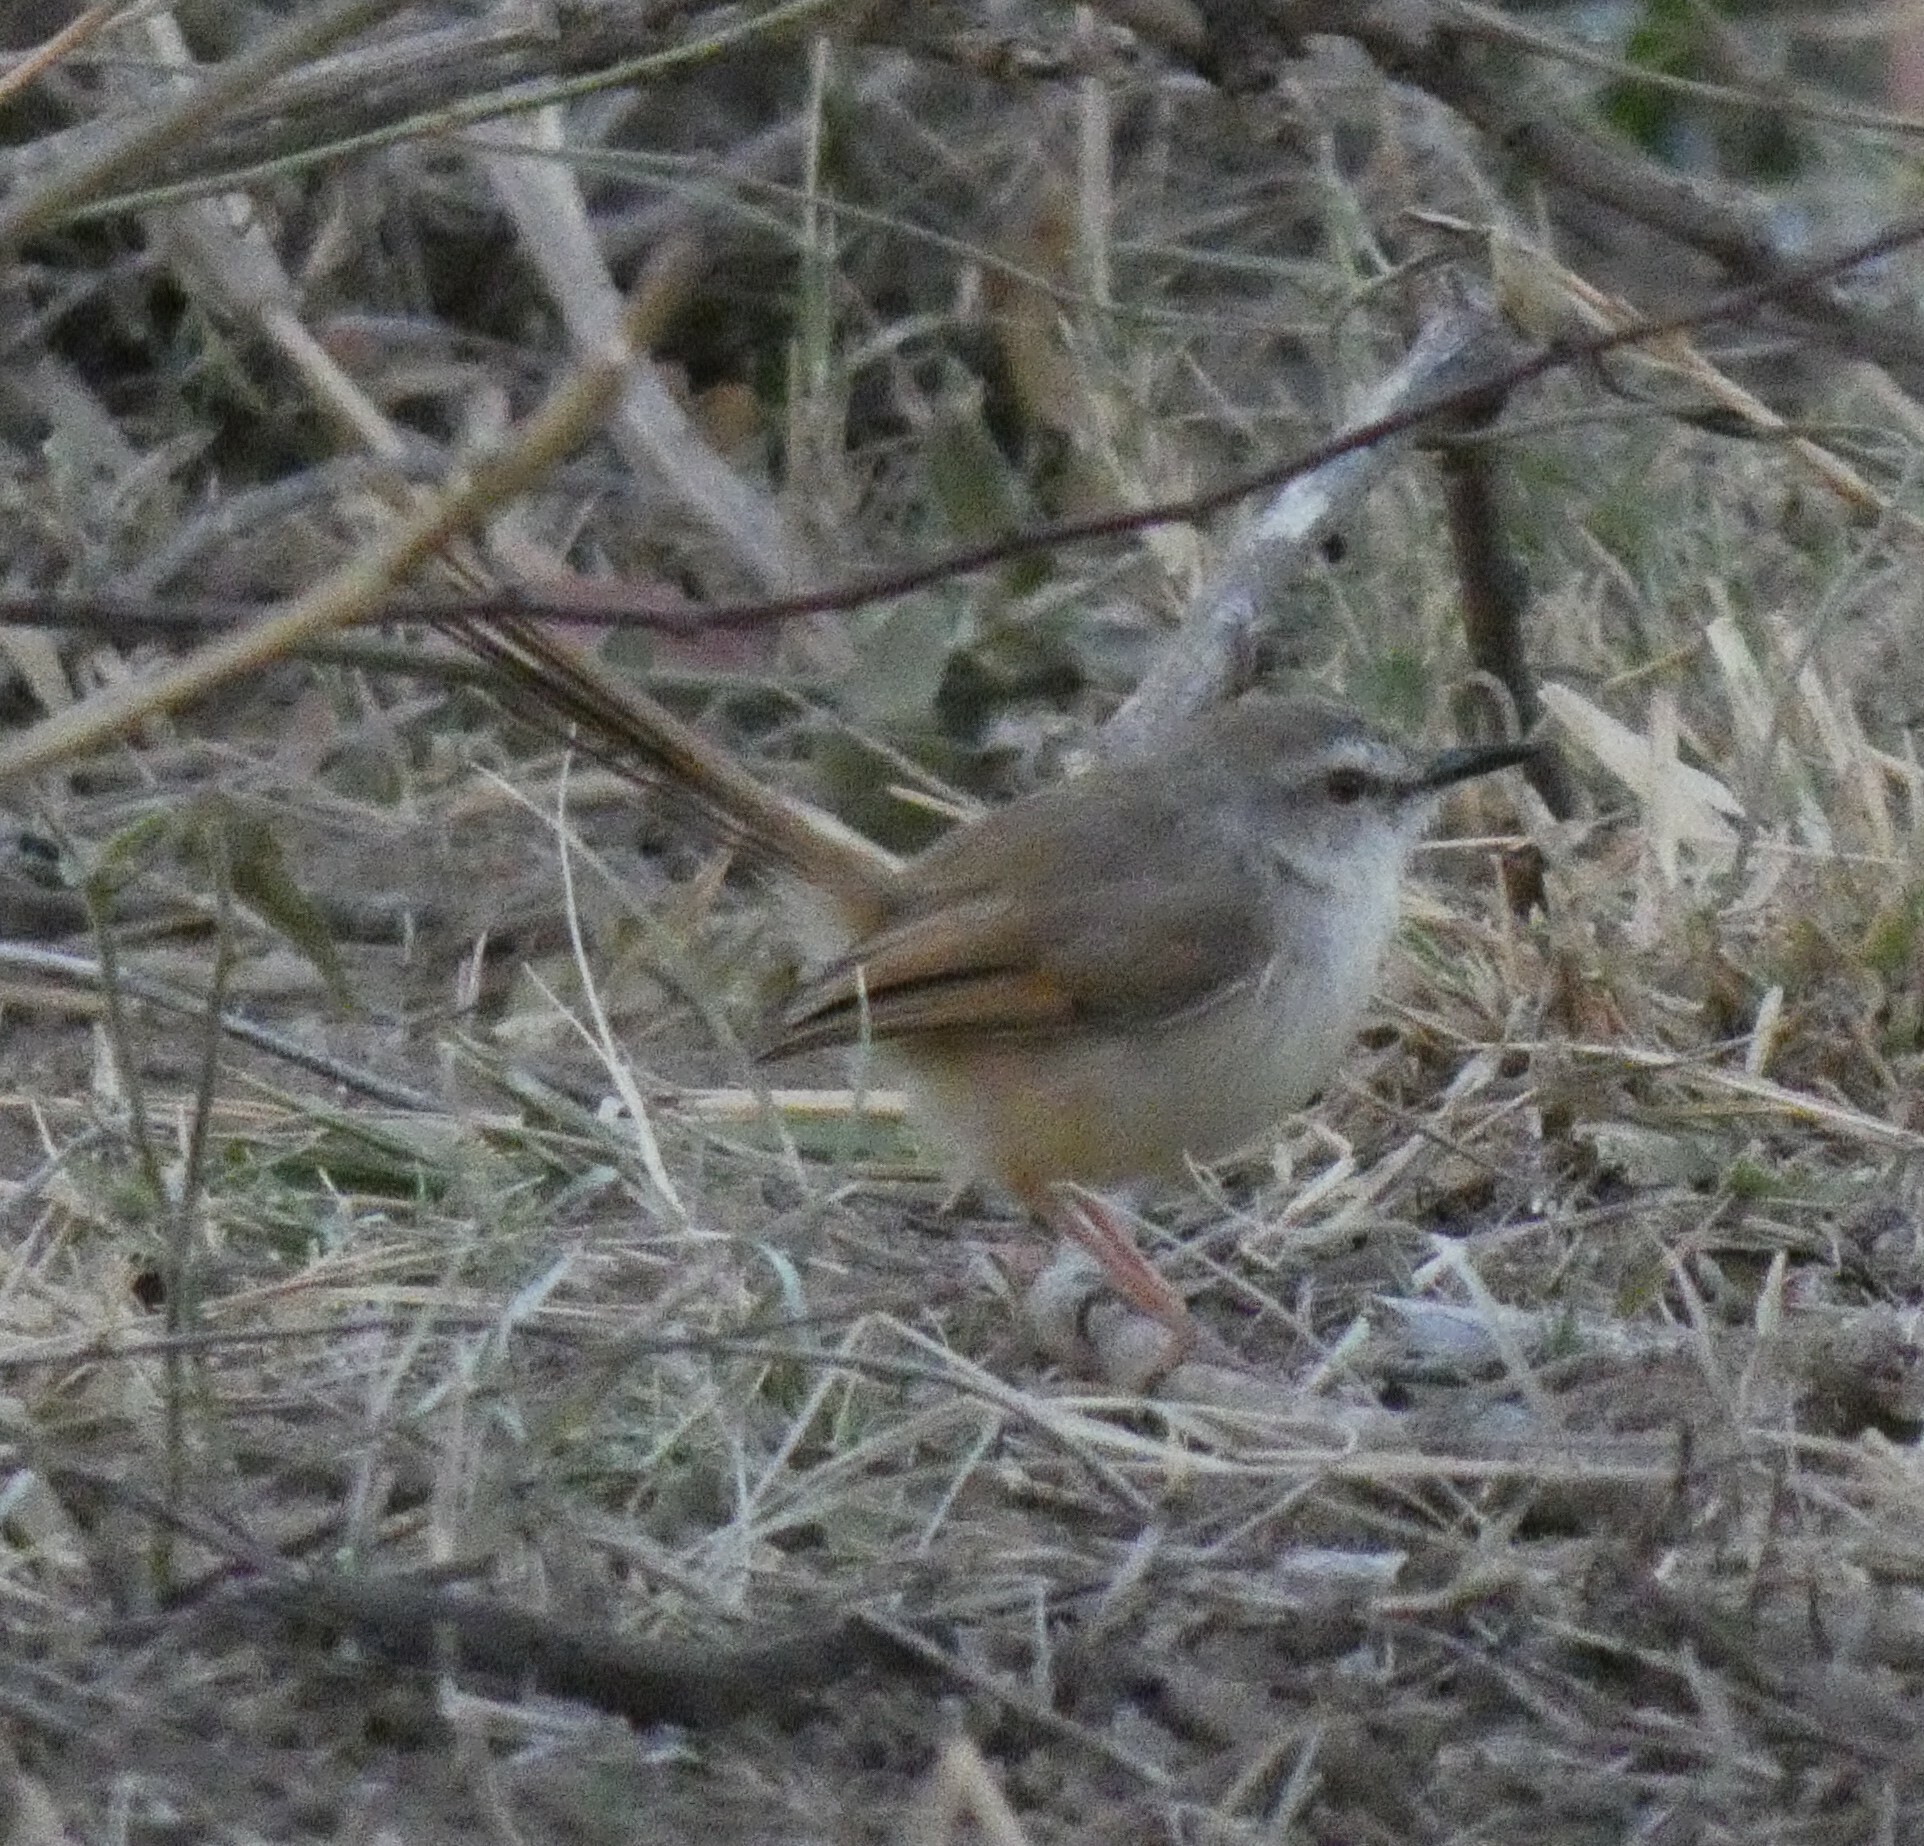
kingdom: Animalia
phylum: Chordata
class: Aves
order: Passeriformes
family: Cisticolidae
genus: Prinia
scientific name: Prinia subflava
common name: Tawny-flanked prinia
